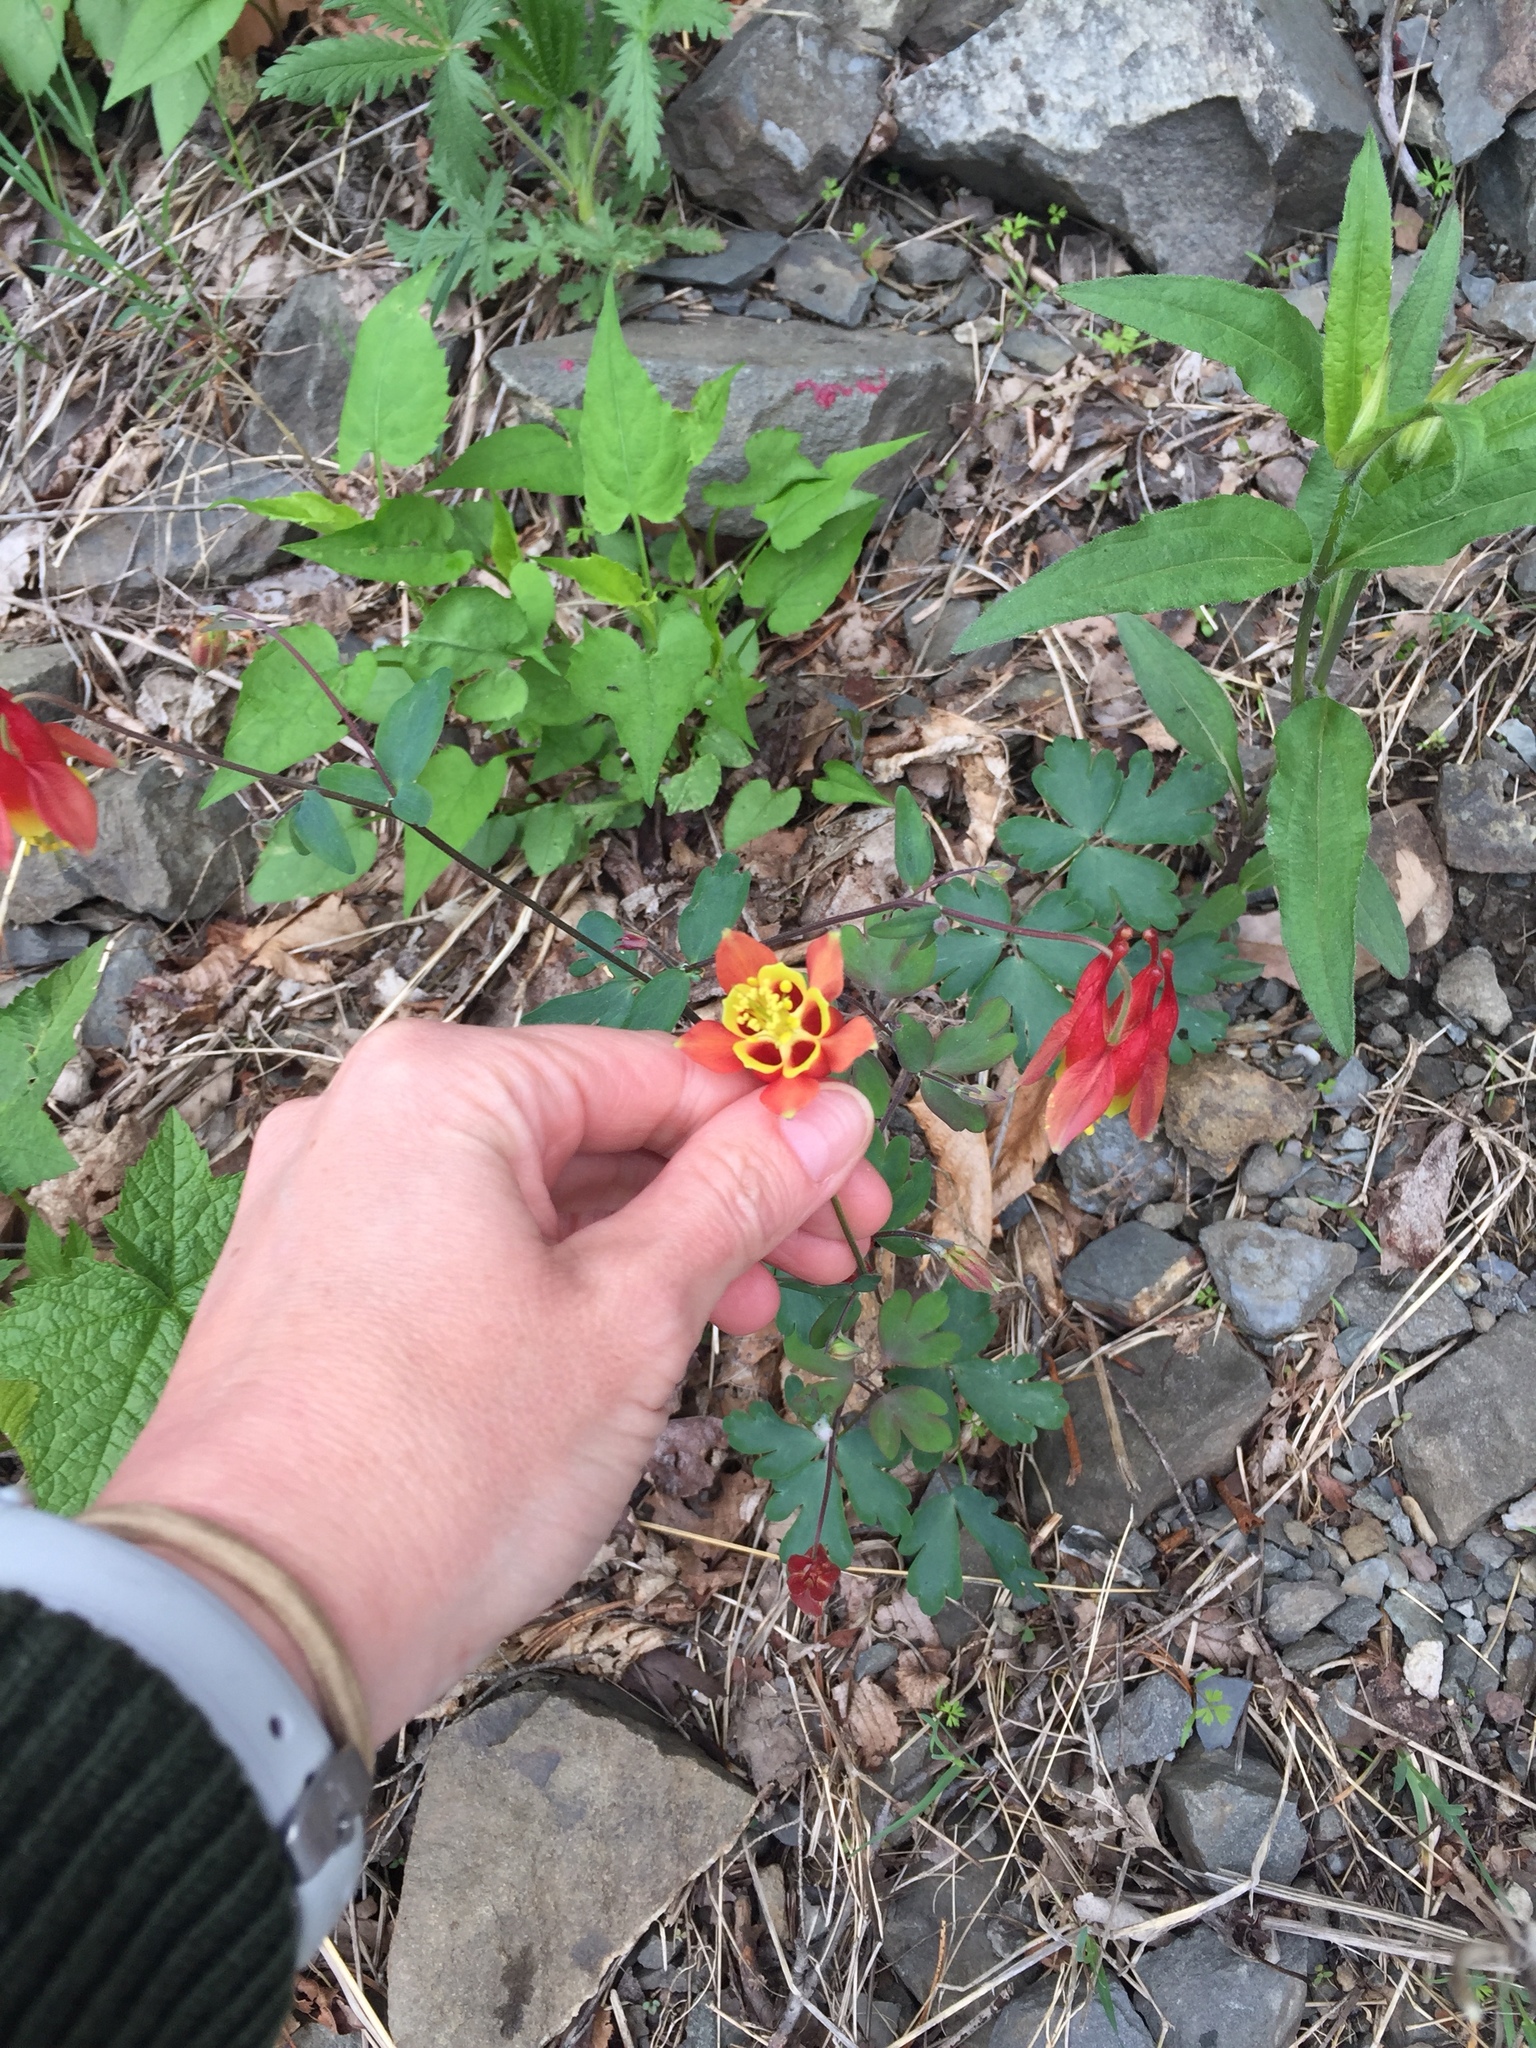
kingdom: Plantae
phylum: Tracheophyta
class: Magnoliopsida
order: Ranunculales
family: Ranunculaceae
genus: Aquilegia
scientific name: Aquilegia canadensis
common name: American columbine
